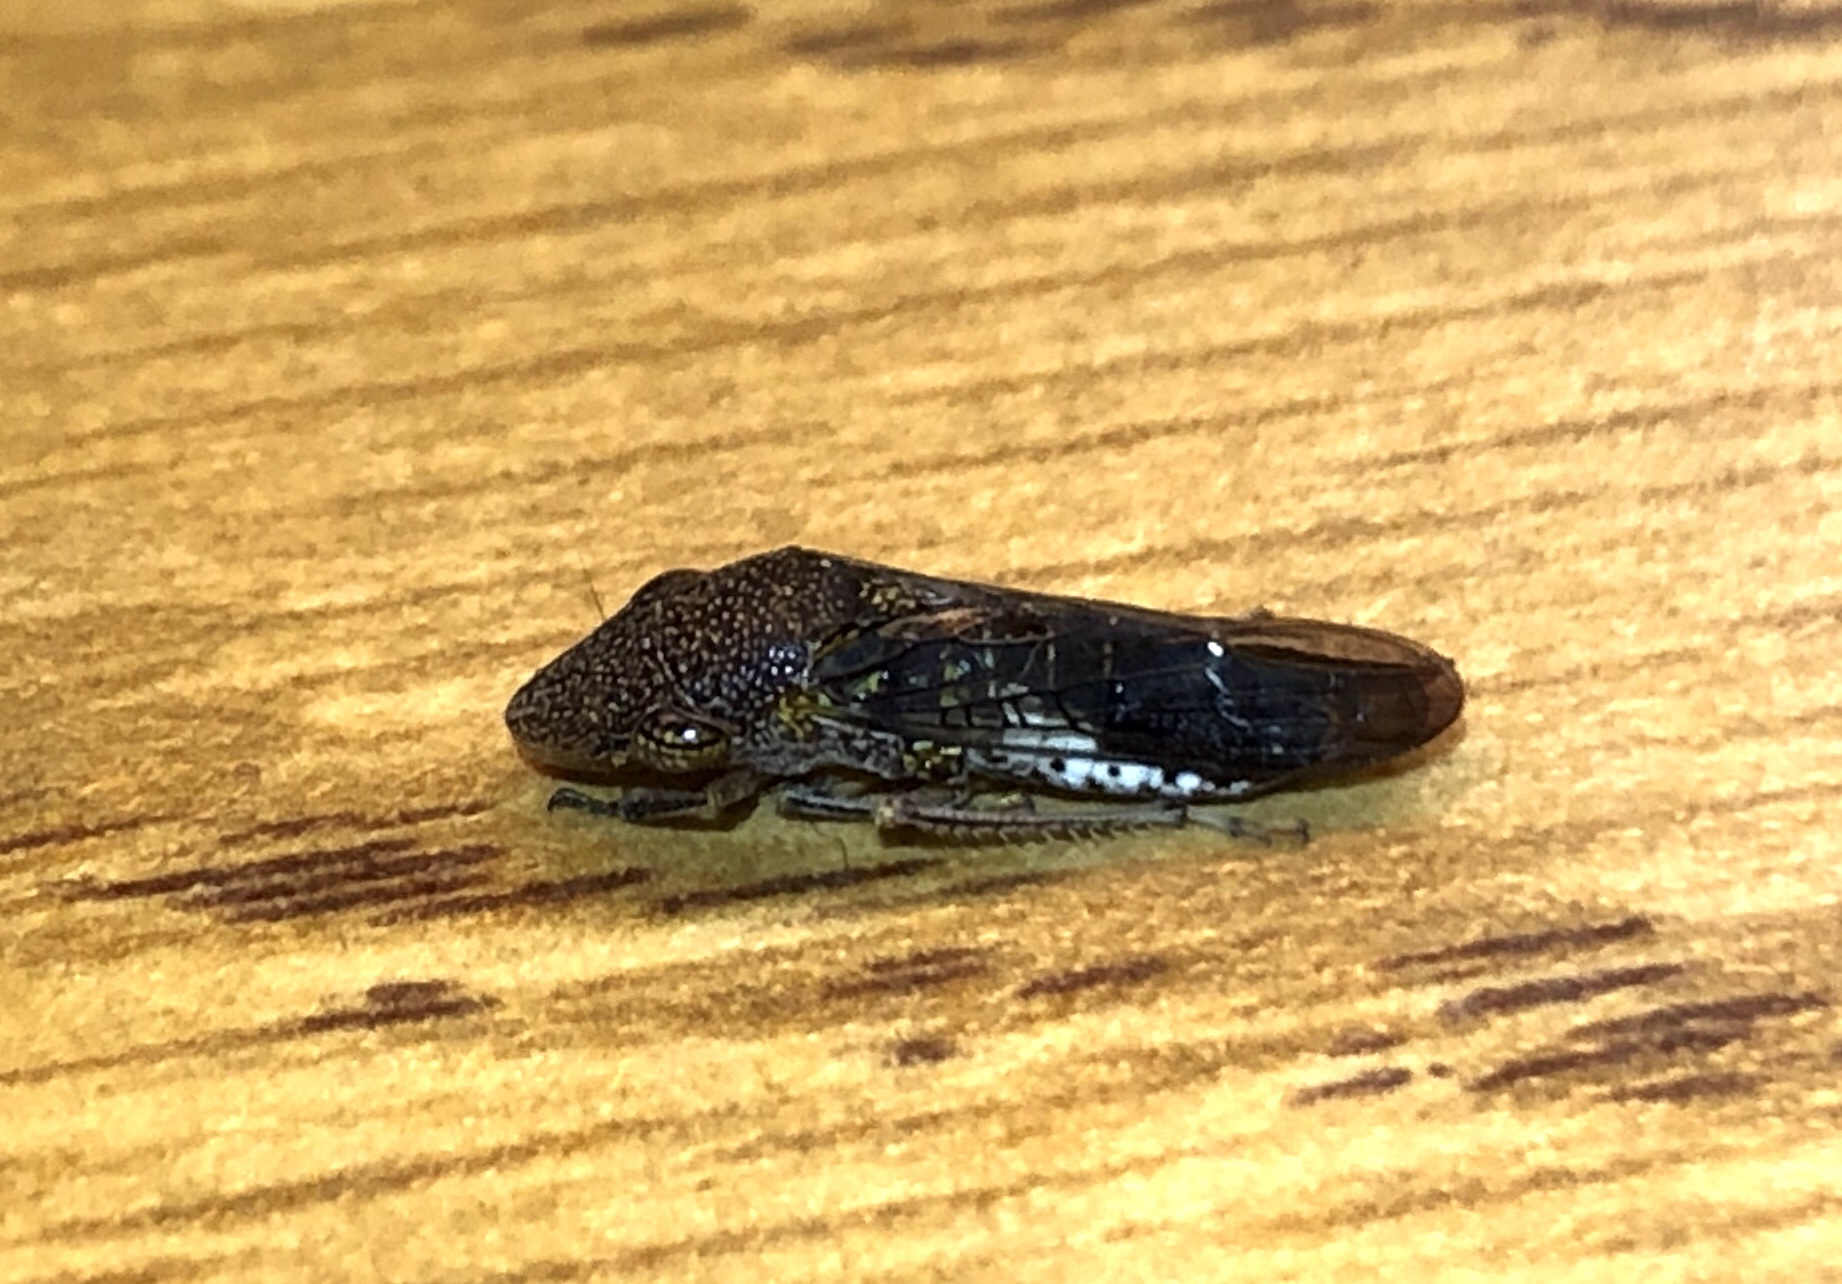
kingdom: Animalia
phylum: Arthropoda
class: Insecta
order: Hemiptera
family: Cicadellidae
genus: Homalodisca
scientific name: Homalodisca vitripennis
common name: Glassy-winged sharpshooter
